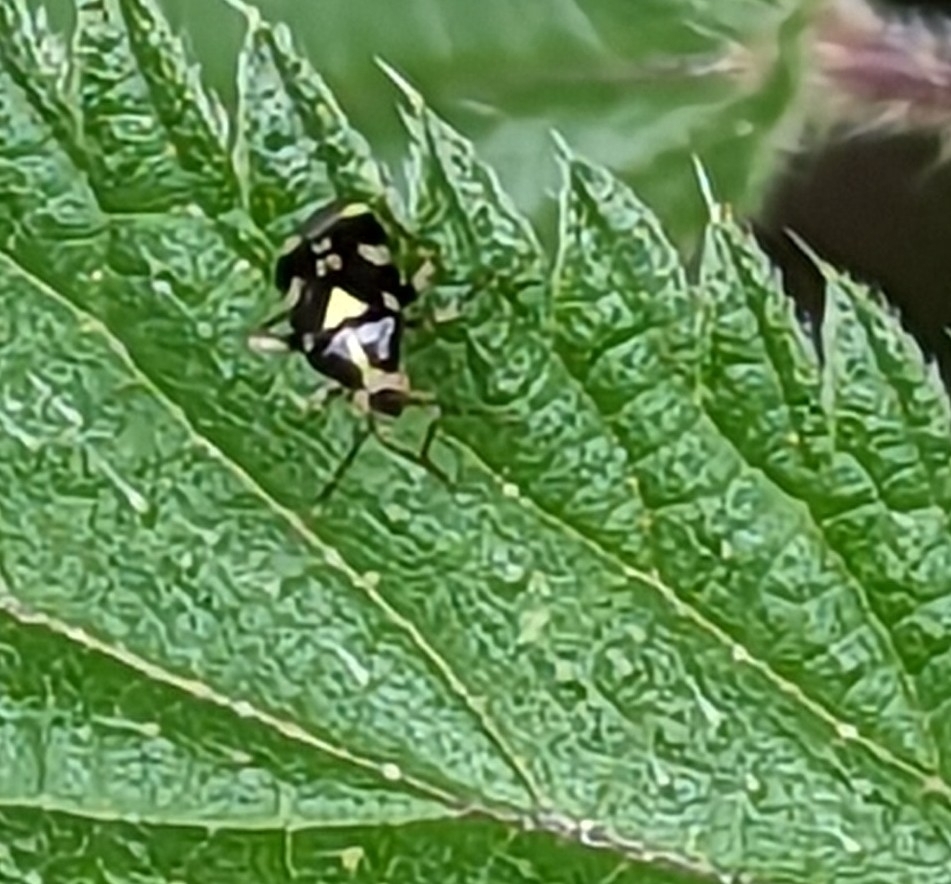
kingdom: Animalia
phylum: Arthropoda
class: Insecta
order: Hemiptera
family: Miridae
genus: Liocoris
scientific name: Liocoris tripustulatus
